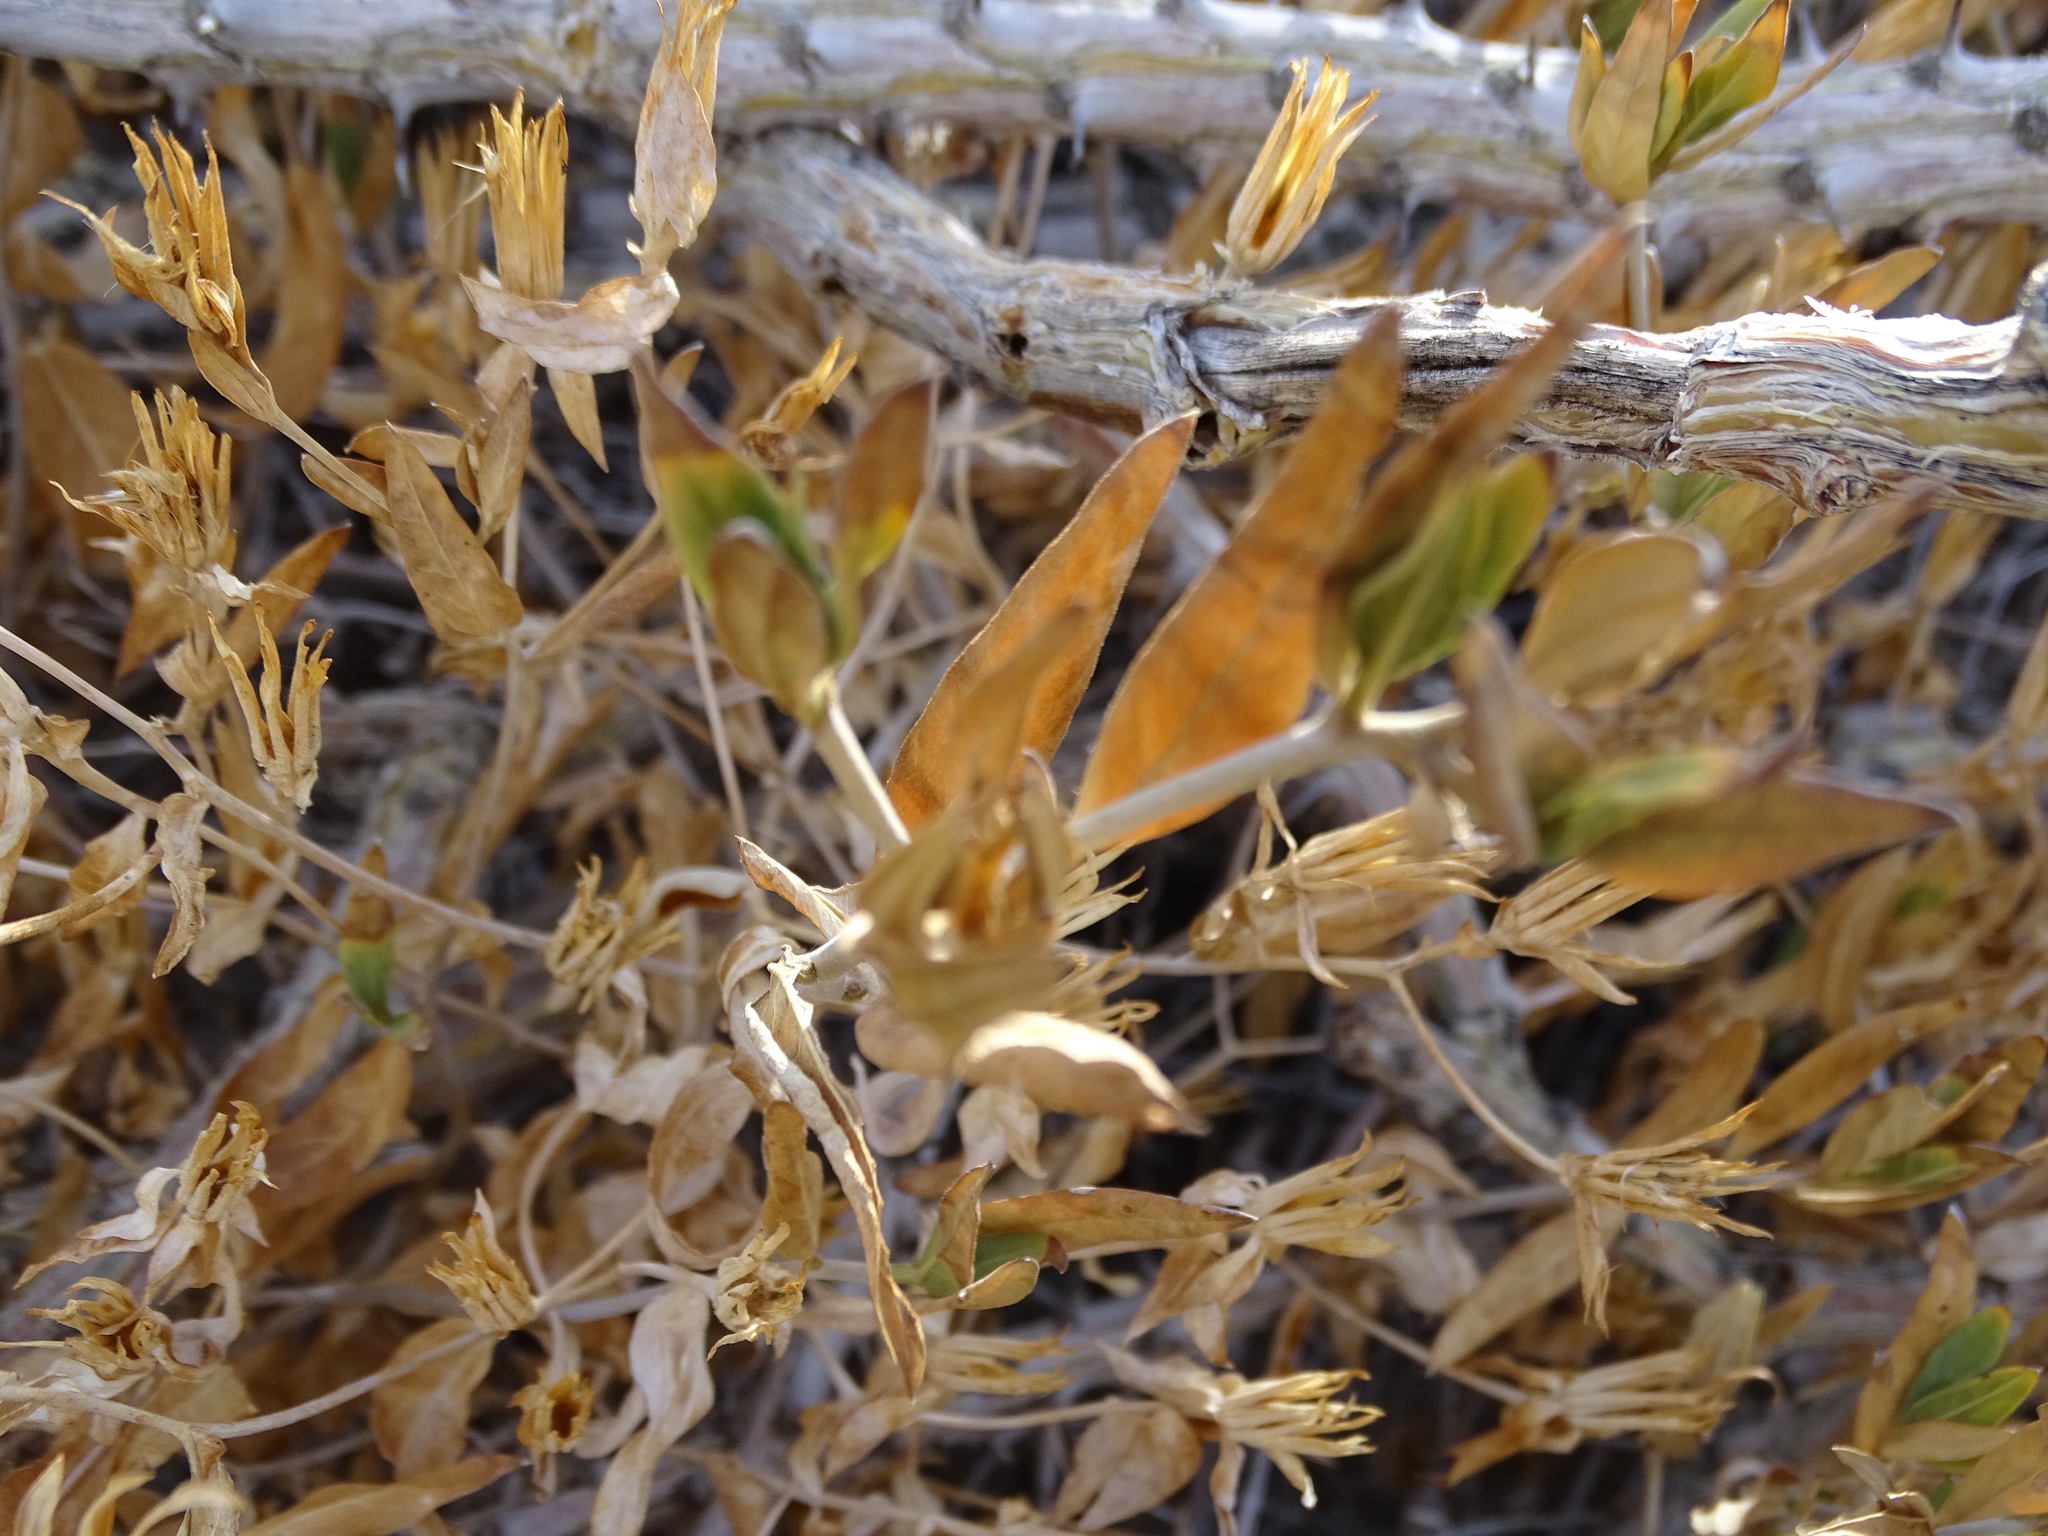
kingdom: Plantae
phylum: Tracheophyta
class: Magnoliopsida
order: Asterales
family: Asteraceae
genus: Trixis
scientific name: Trixis californica
